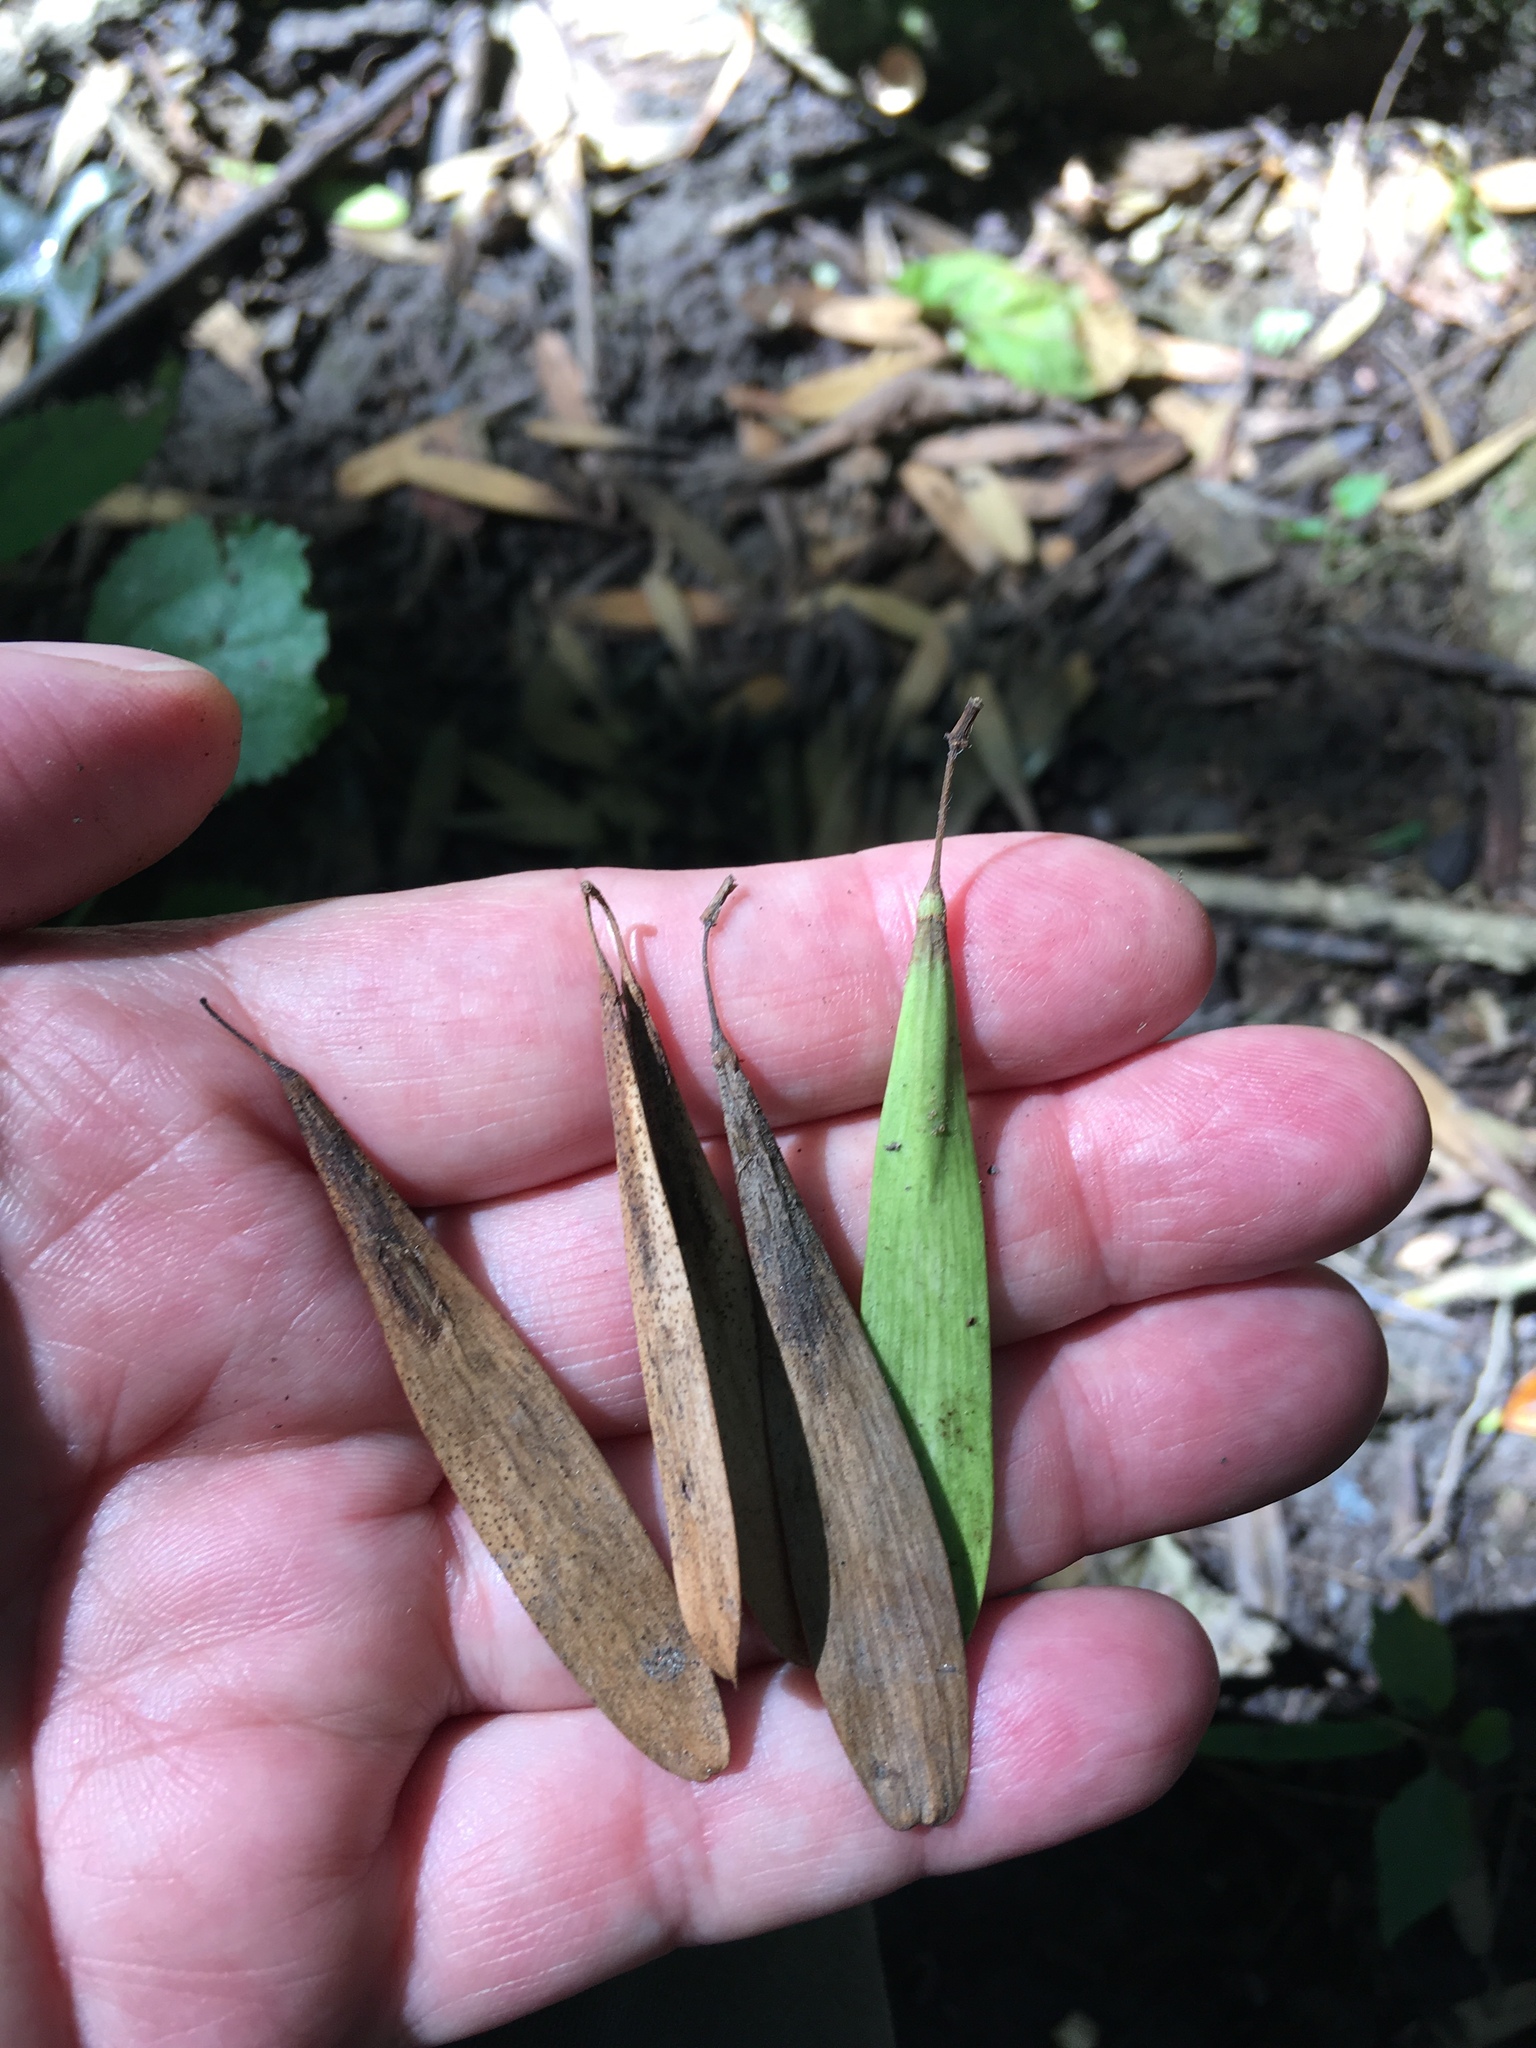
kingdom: Plantae
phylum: Tracheophyta
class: Magnoliopsida
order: Lamiales
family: Oleaceae
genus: Fraxinus
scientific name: Fraxinus profunda
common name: Pumpkin ash
